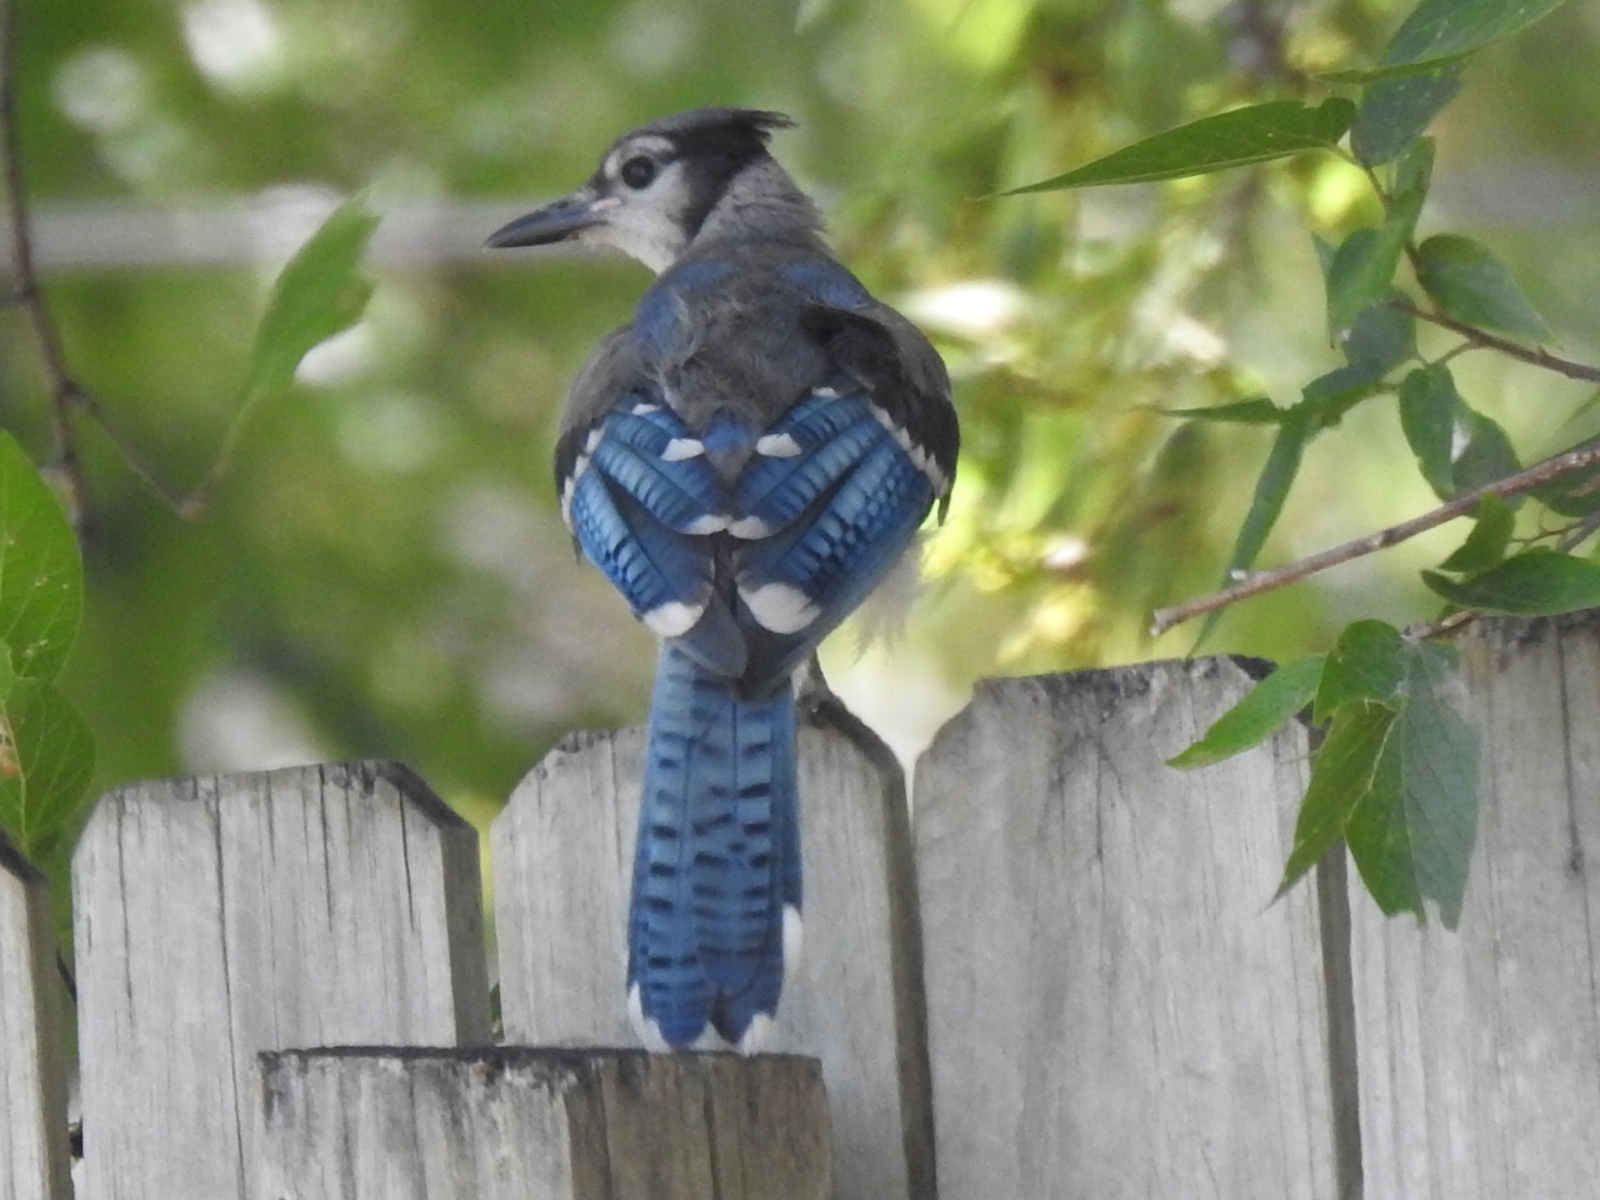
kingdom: Animalia
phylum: Chordata
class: Aves
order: Passeriformes
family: Corvidae
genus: Cyanocitta
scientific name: Cyanocitta cristata
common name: Blue jay
